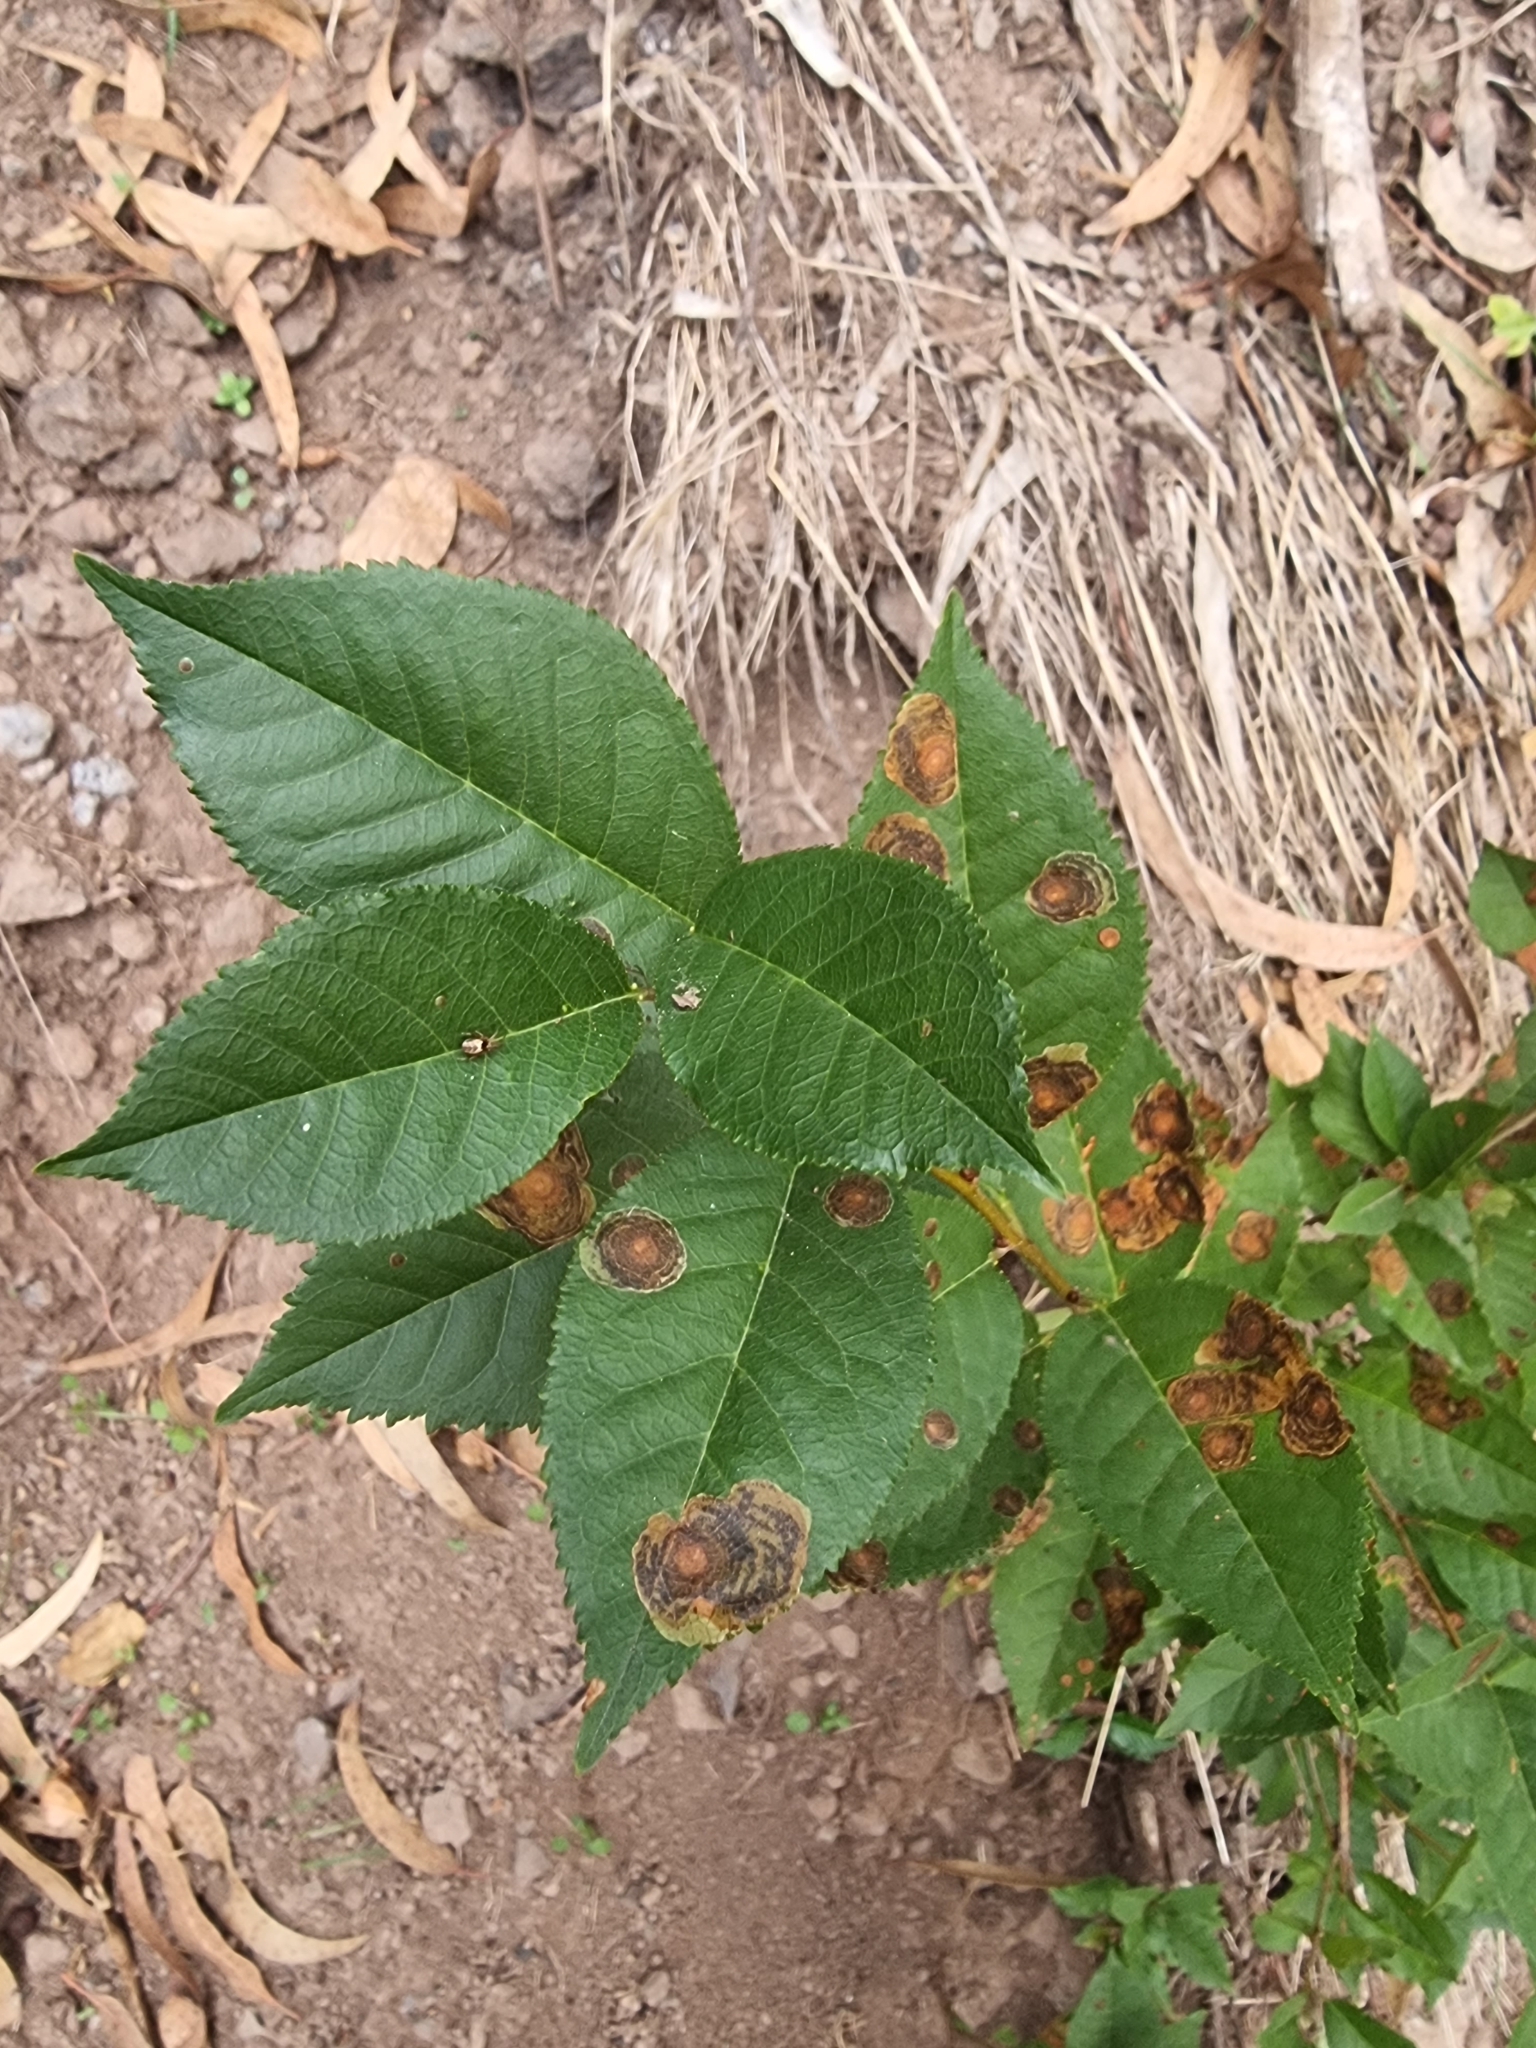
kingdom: Plantae
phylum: Tracheophyta
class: Magnoliopsida
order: Rosales
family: Rosaceae
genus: Prunus
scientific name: Prunus avium
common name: Sweet cherry
